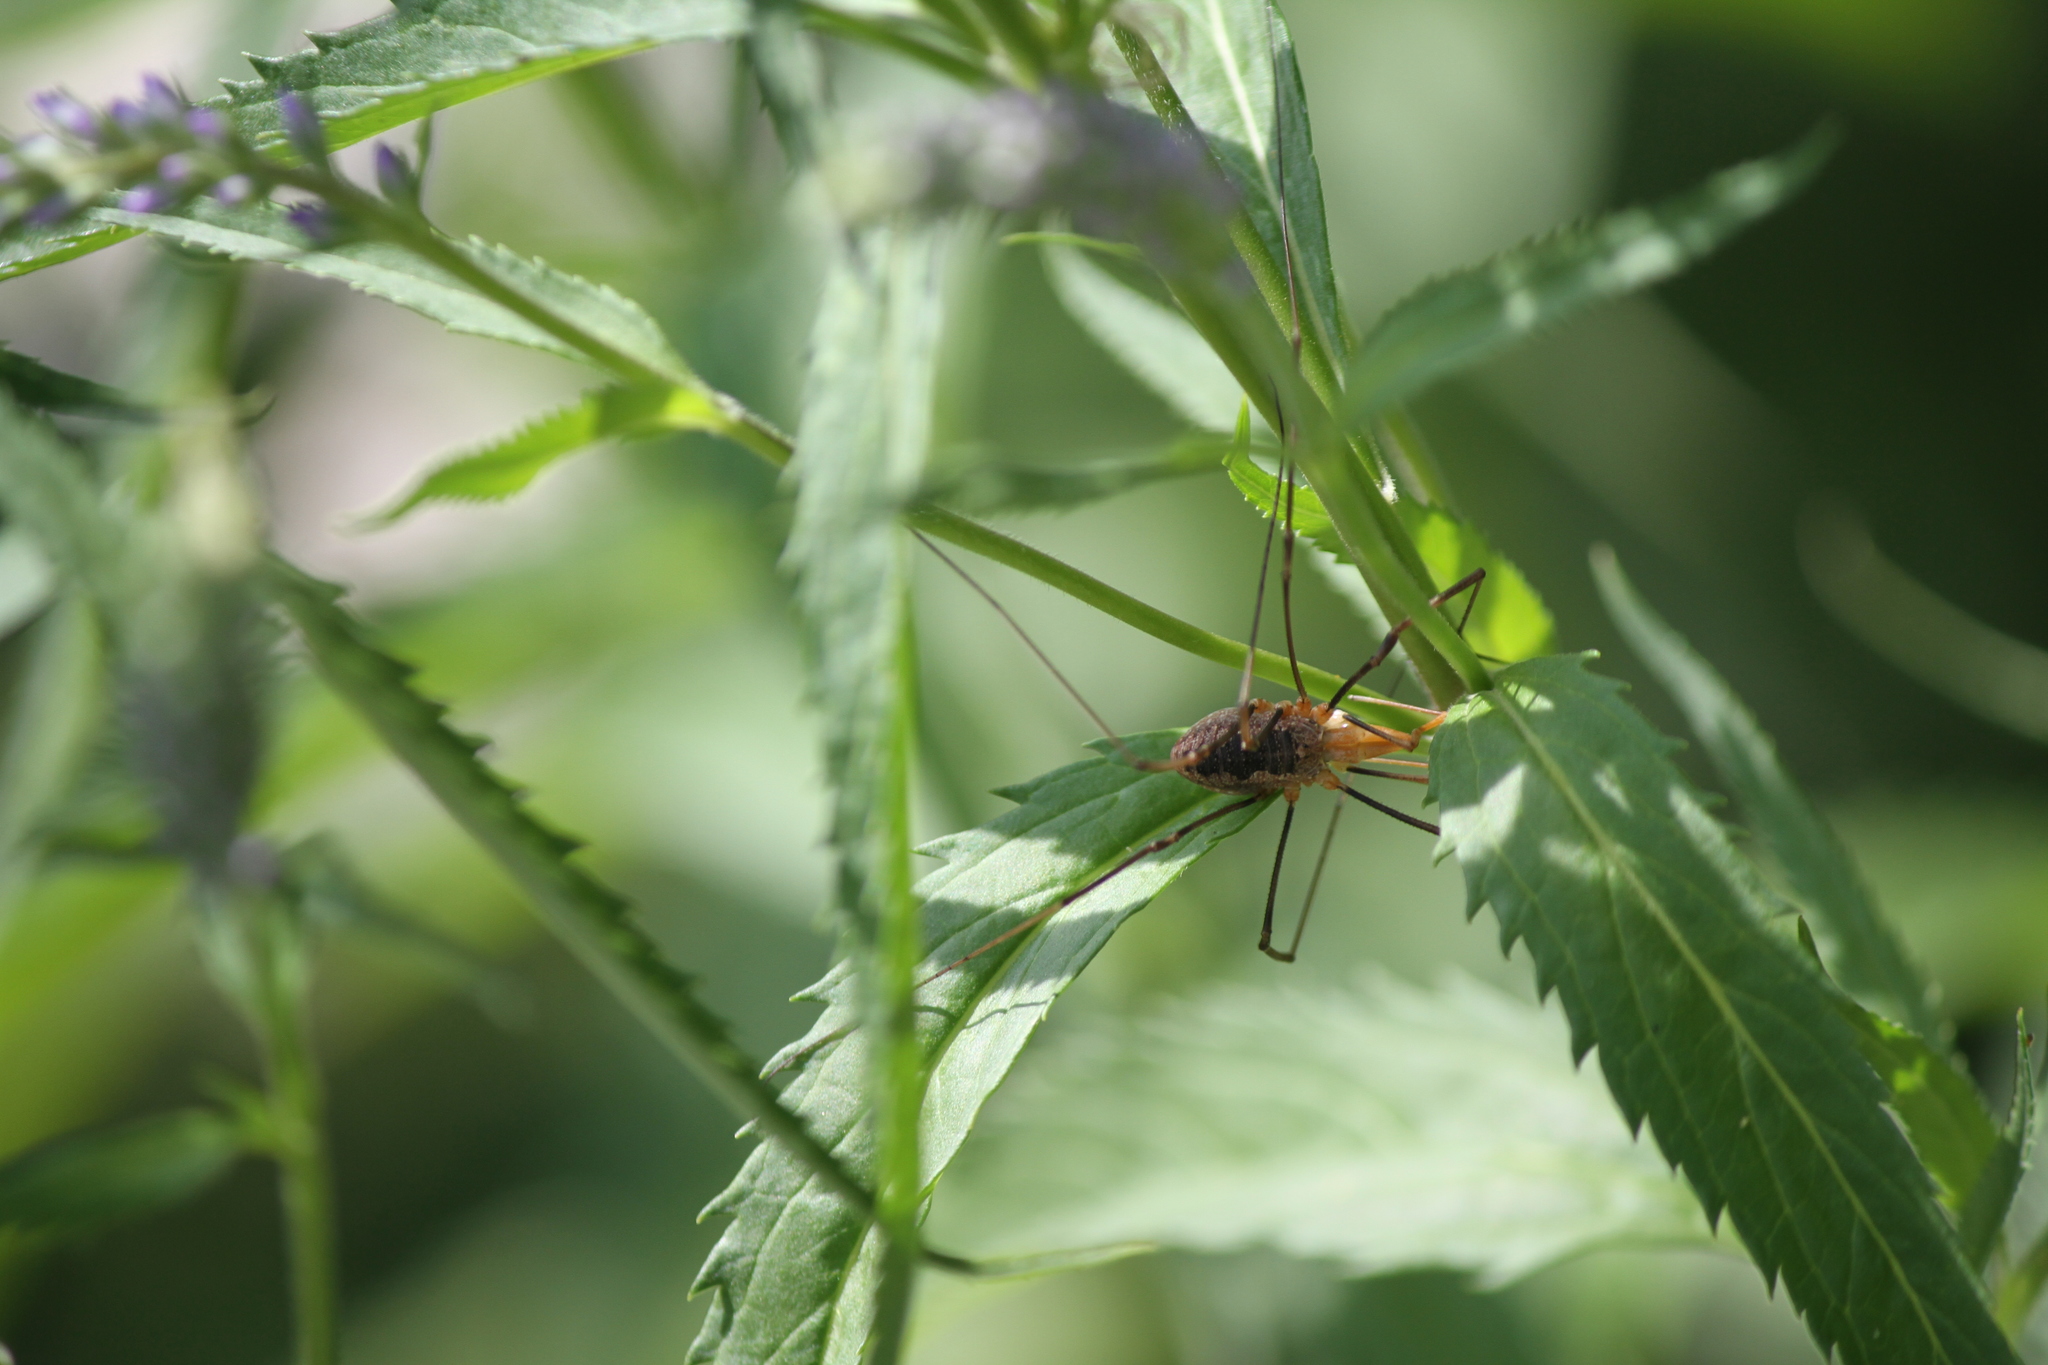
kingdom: Animalia
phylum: Arthropoda
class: Arachnida
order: Opiliones
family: Phalangiidae
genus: Phalangium
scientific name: Phalangium opilio
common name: Daddy longleg
